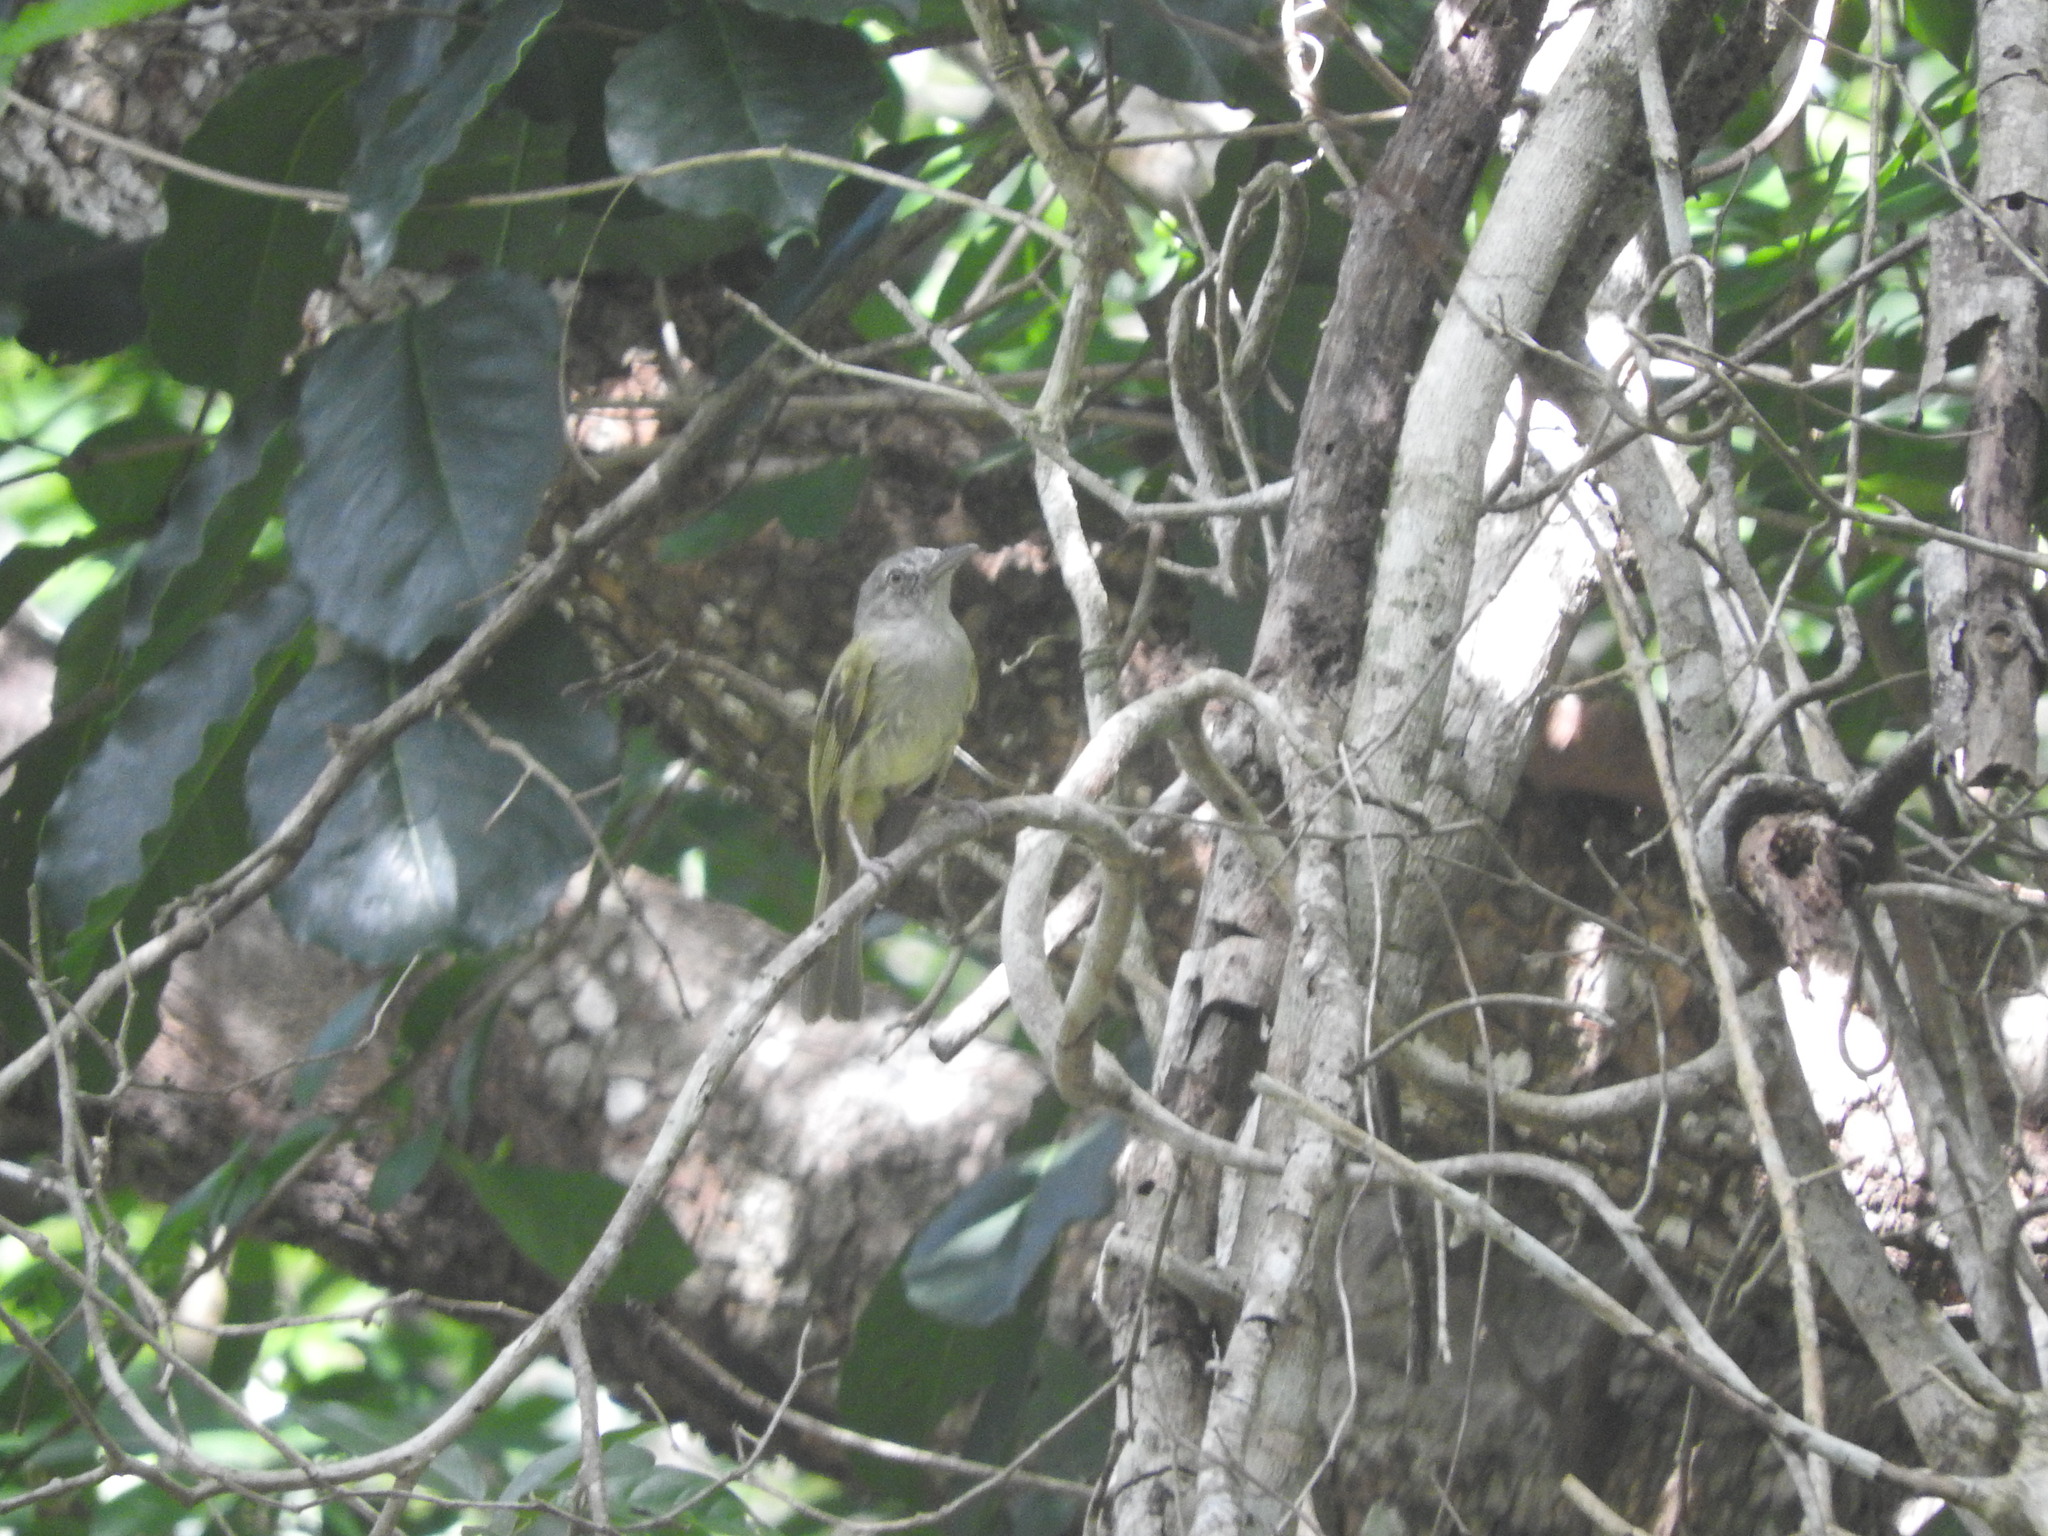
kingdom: Animalia
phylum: Chordata
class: Aves
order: Passeriformes
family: Tyrannidae
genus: Tolmomyias
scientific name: Tolmomyias sulphurescens
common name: Yellow-olive flycatcher
